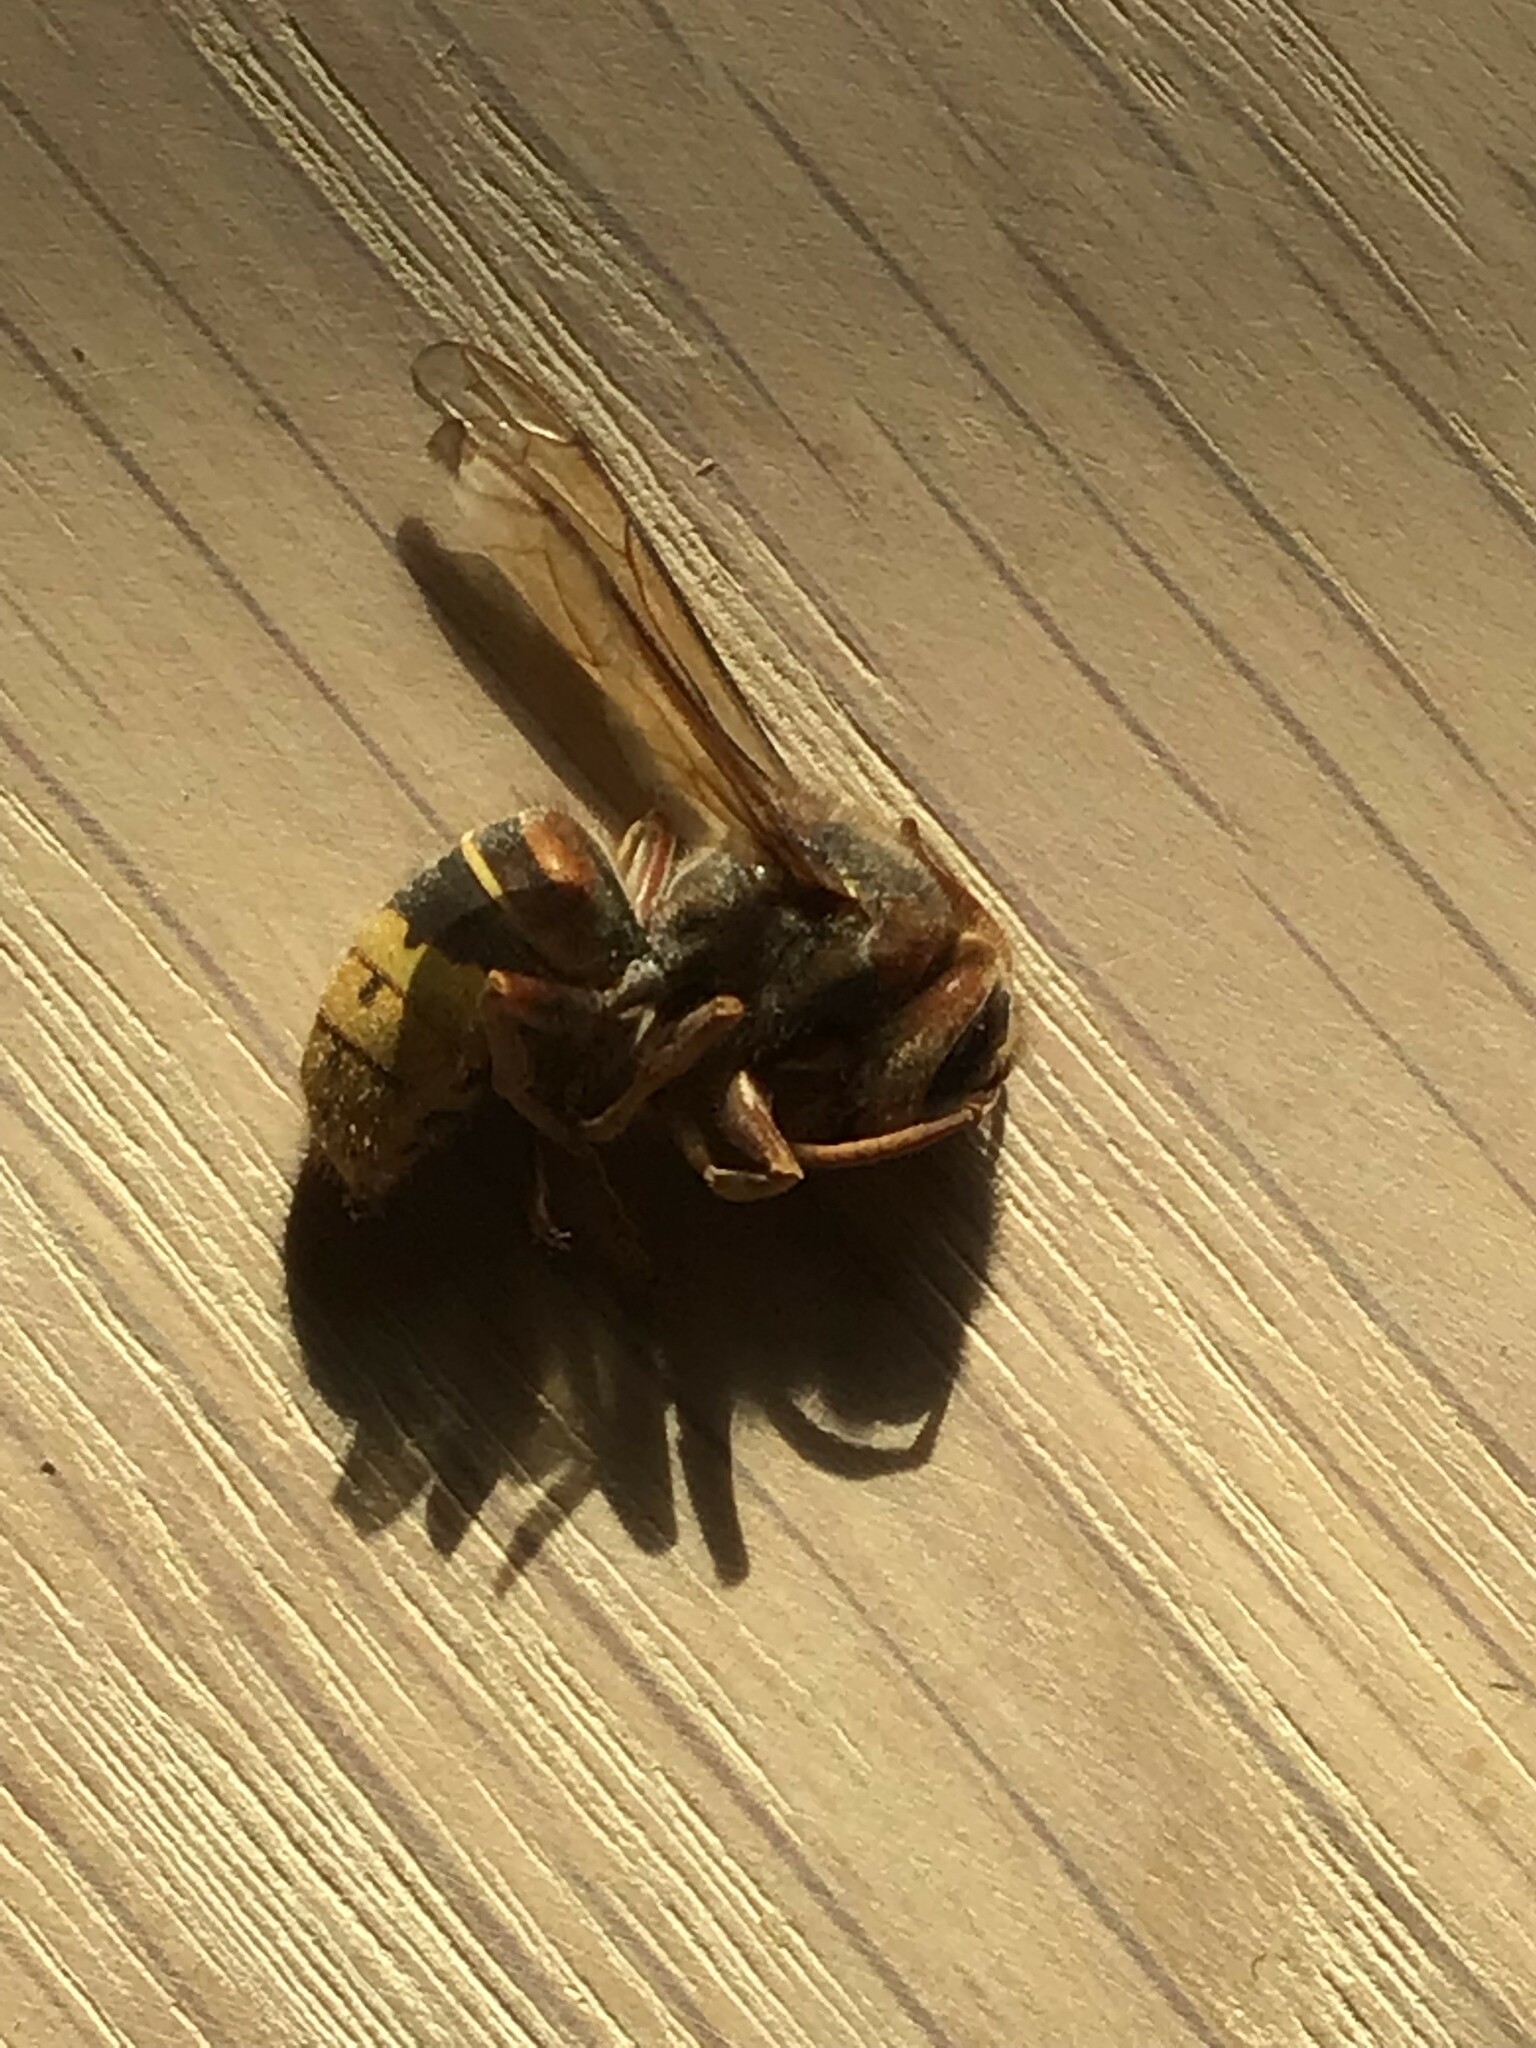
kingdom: Animalia
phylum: Arthropoda
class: Insecta
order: Hymenoptera
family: Vespidae
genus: Vespa
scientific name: Vespa crabro
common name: Hornet
